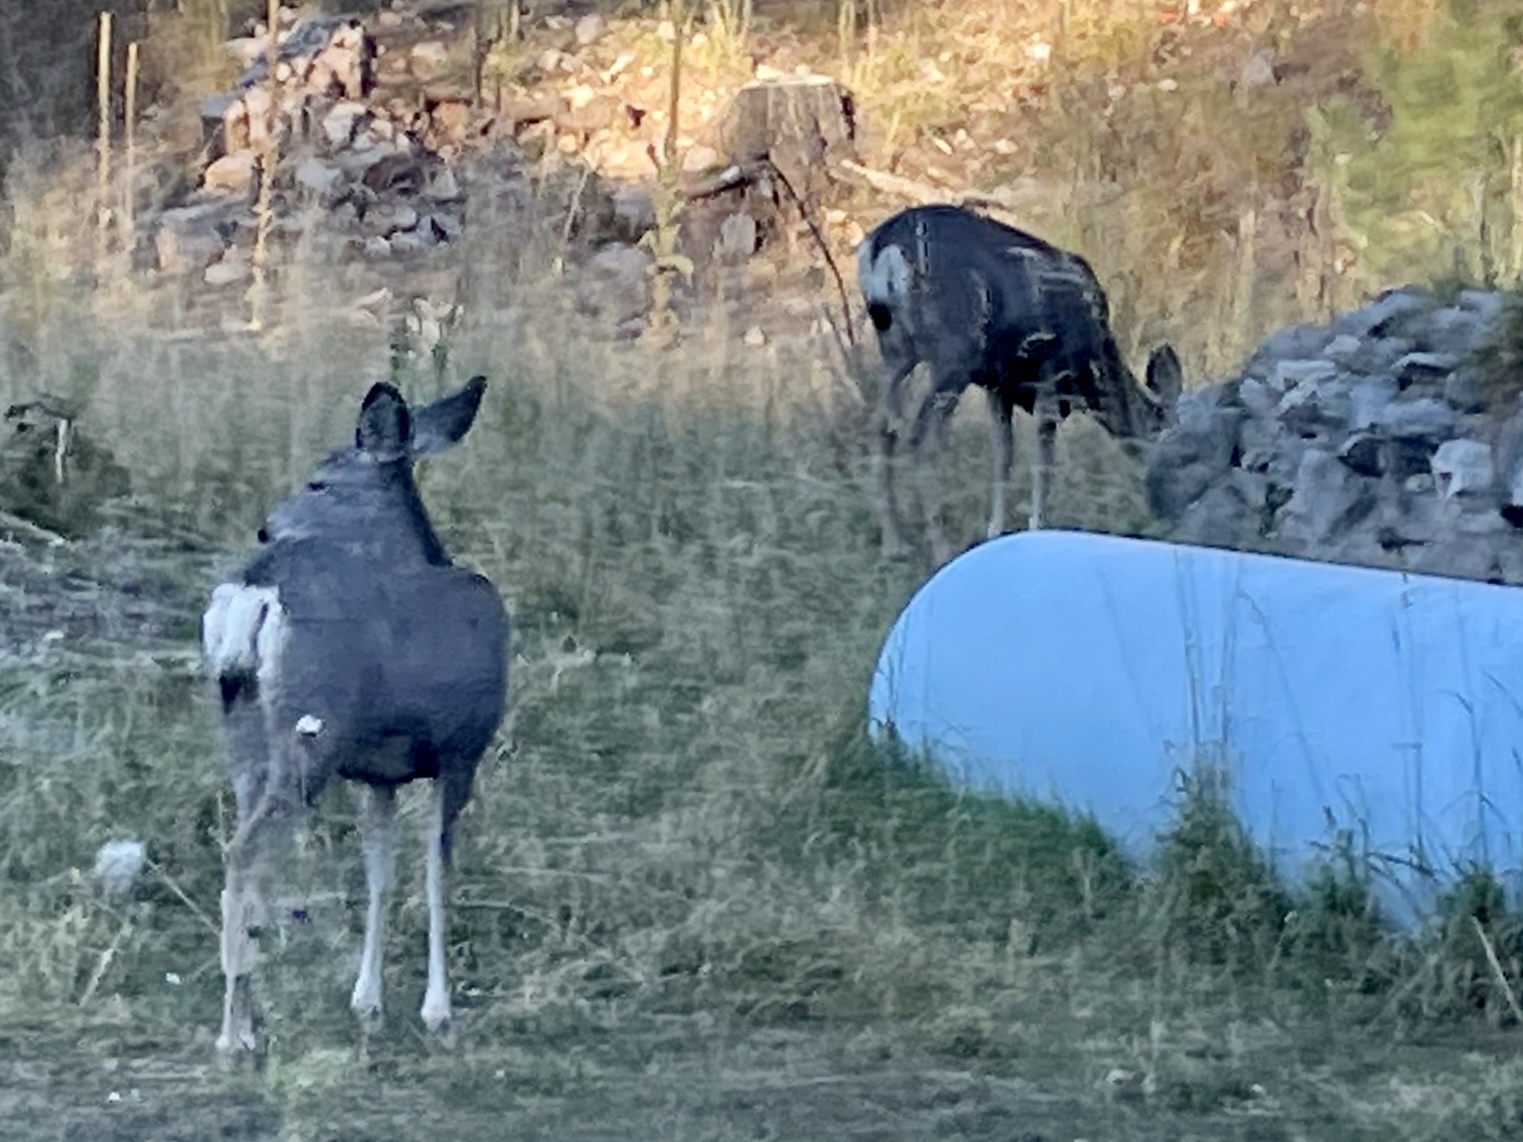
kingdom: Animalia
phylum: Chordata
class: Mammalia
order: Artiodactyla
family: Cervidae
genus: Odocoileus
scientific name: Odocoileus hemionus
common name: Mule deer
